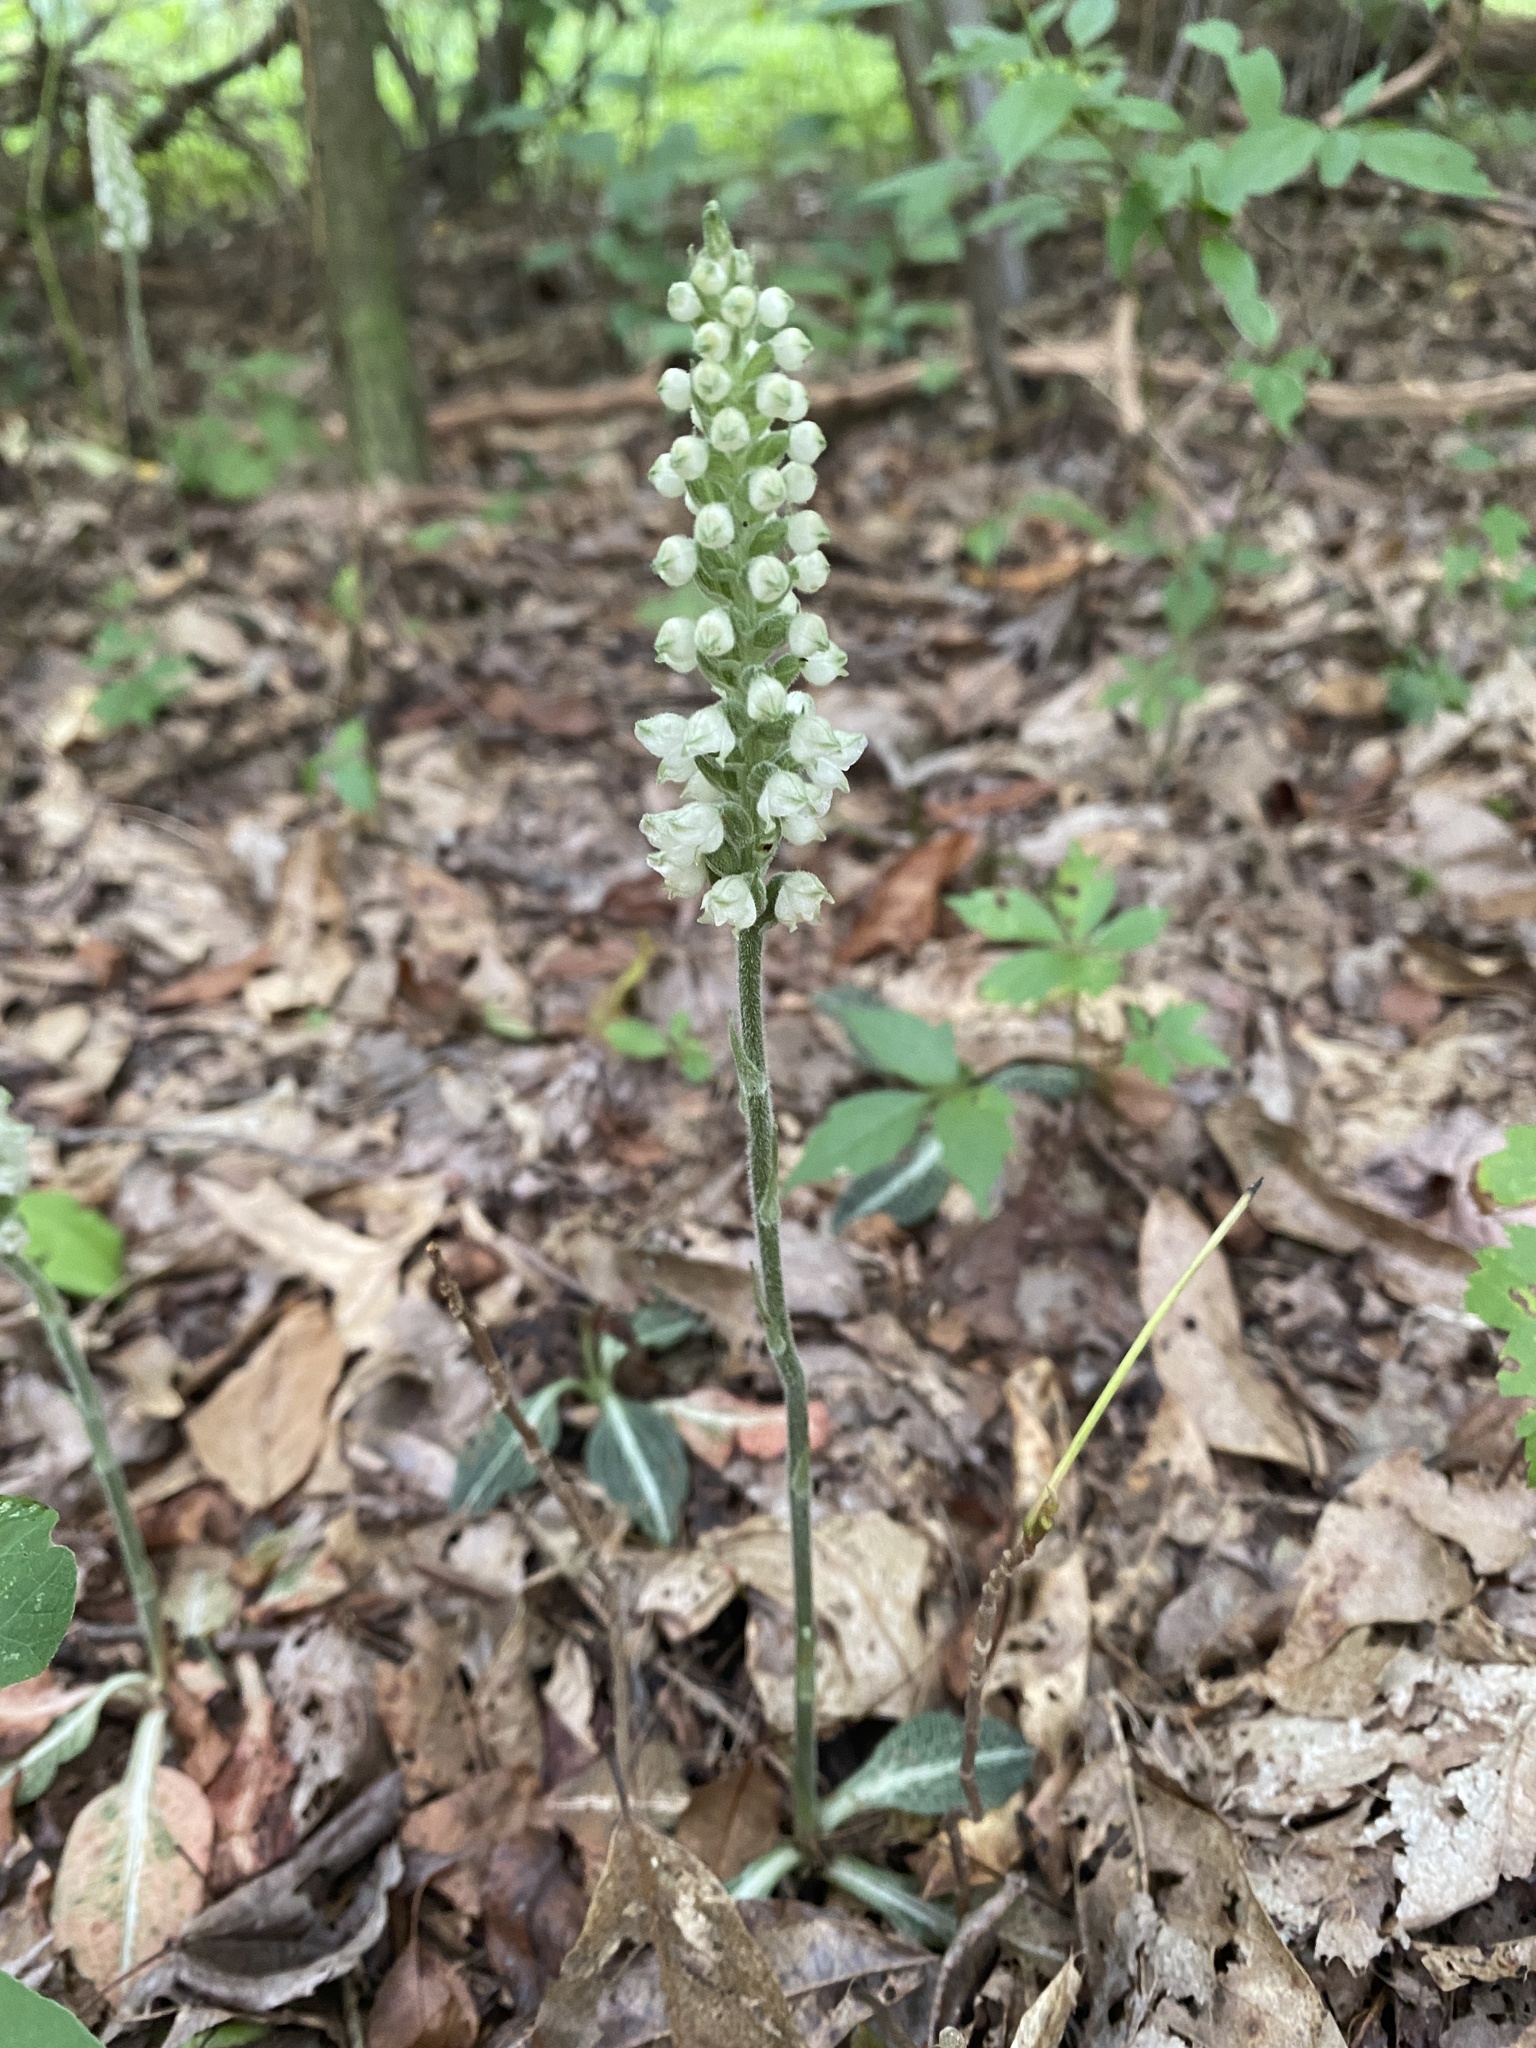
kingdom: Plantae
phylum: Tracheophyta
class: Liliopsida
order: Asparagales
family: Orchidaceae
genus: Goodyera
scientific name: Goodyera pubescens
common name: Downy rattlesnake-plantain
